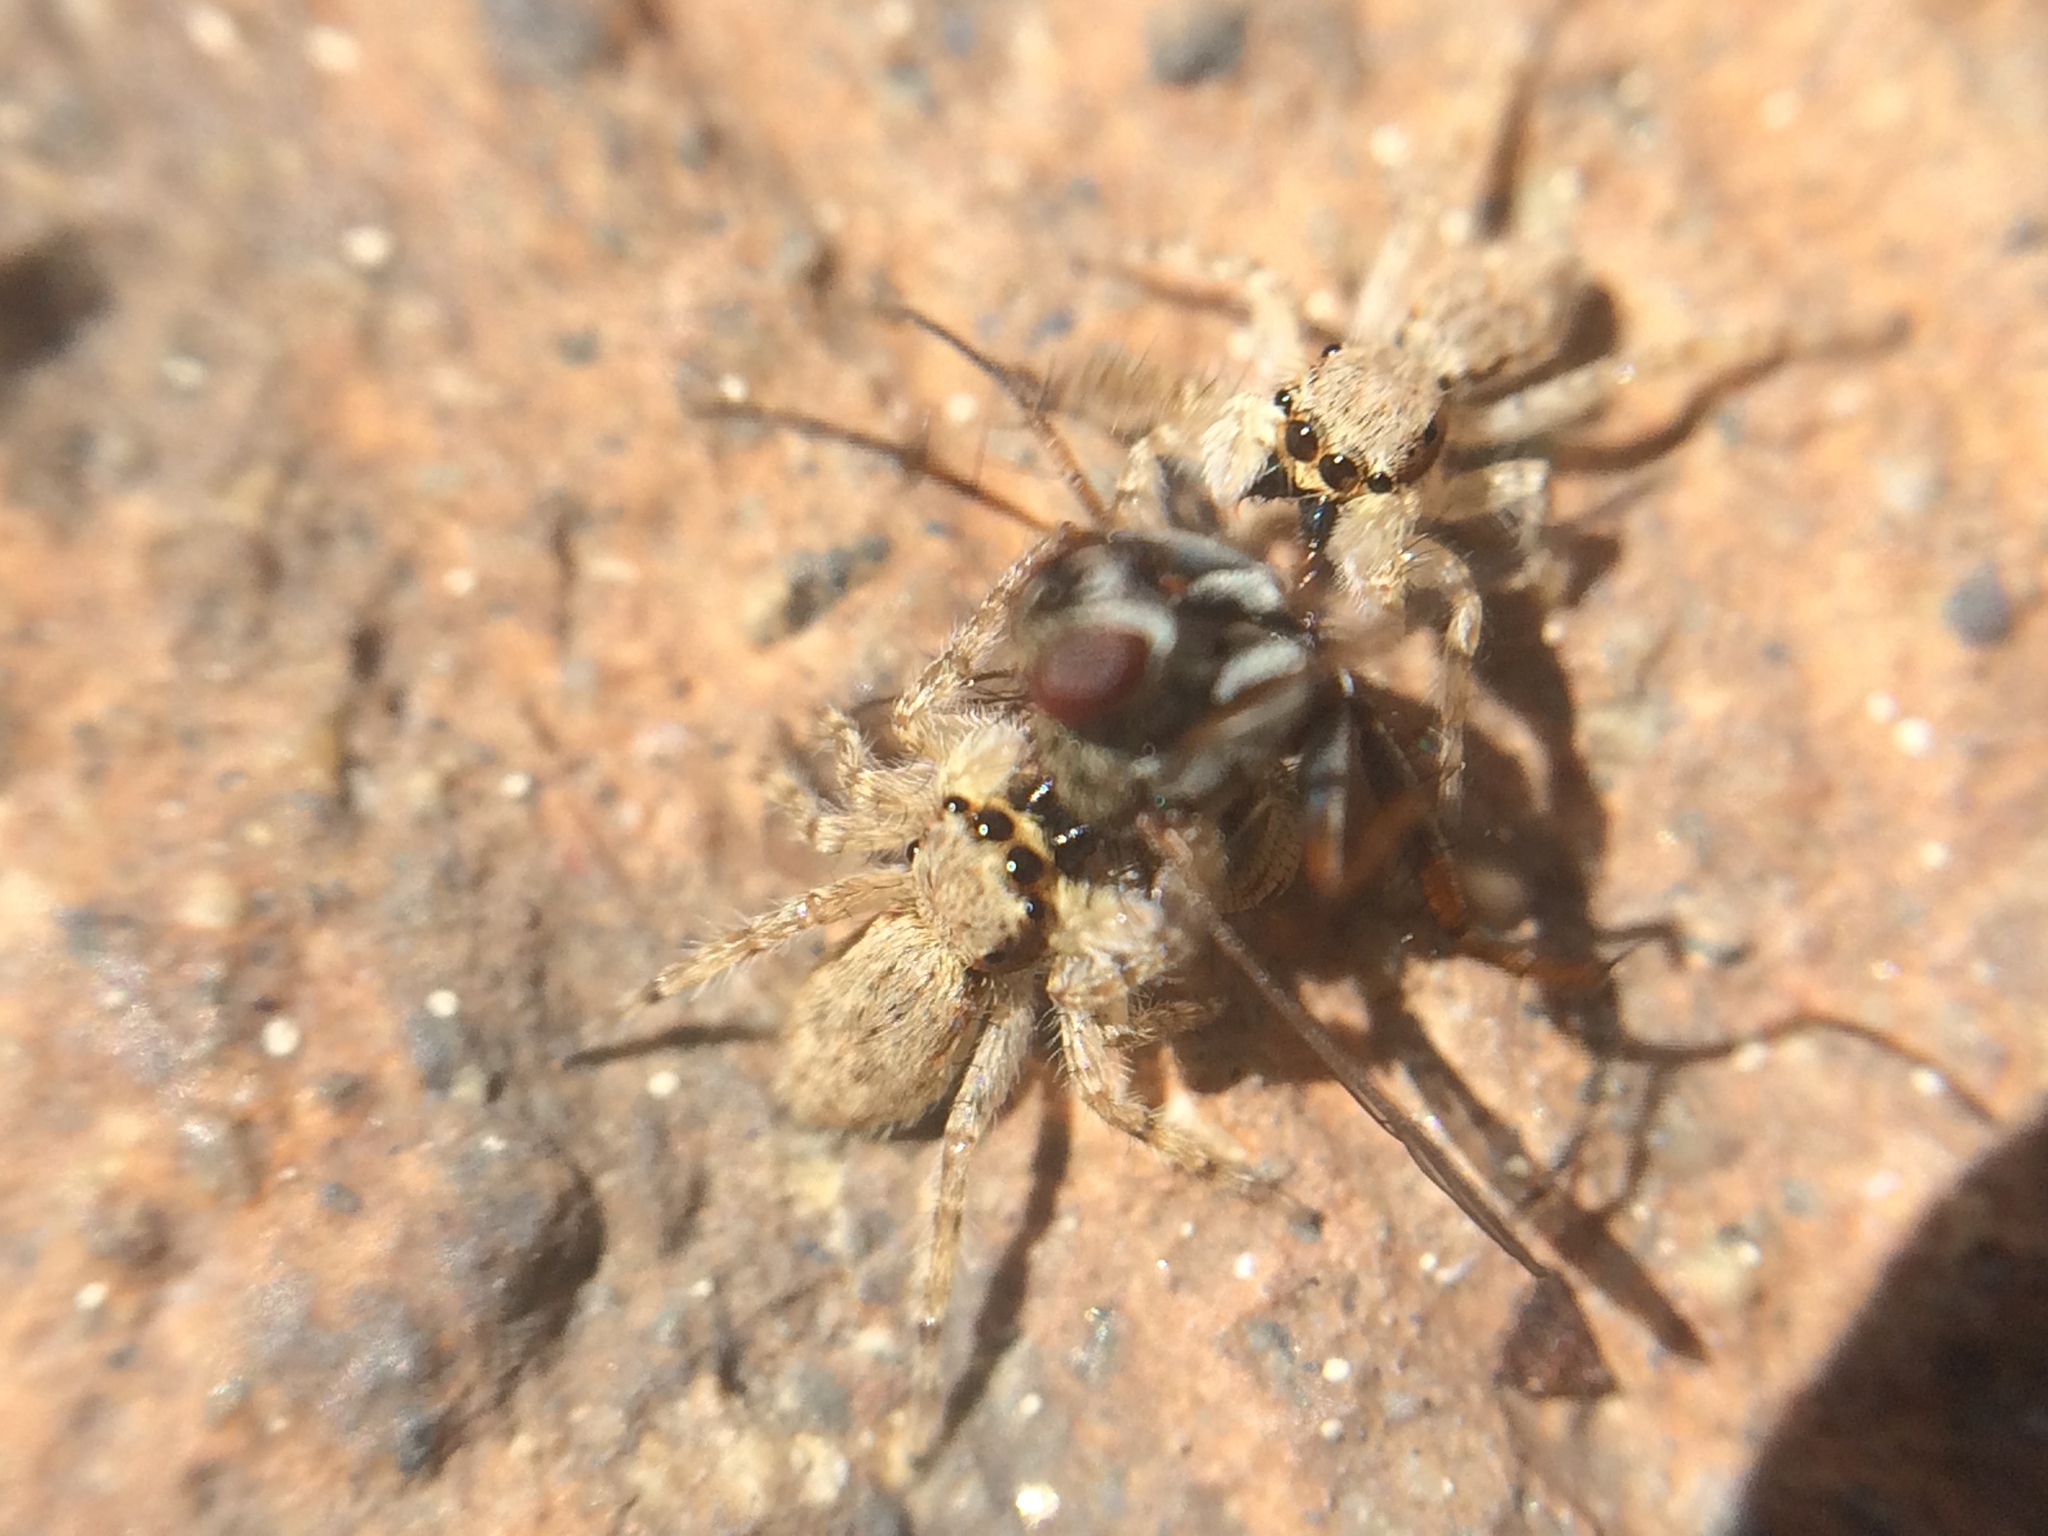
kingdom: Animalia
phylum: Arthropoda
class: Arachnida
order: Araneae
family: Salticidae
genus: Menemerus
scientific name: Menemerus bivittatus
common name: Gray wall jumper
